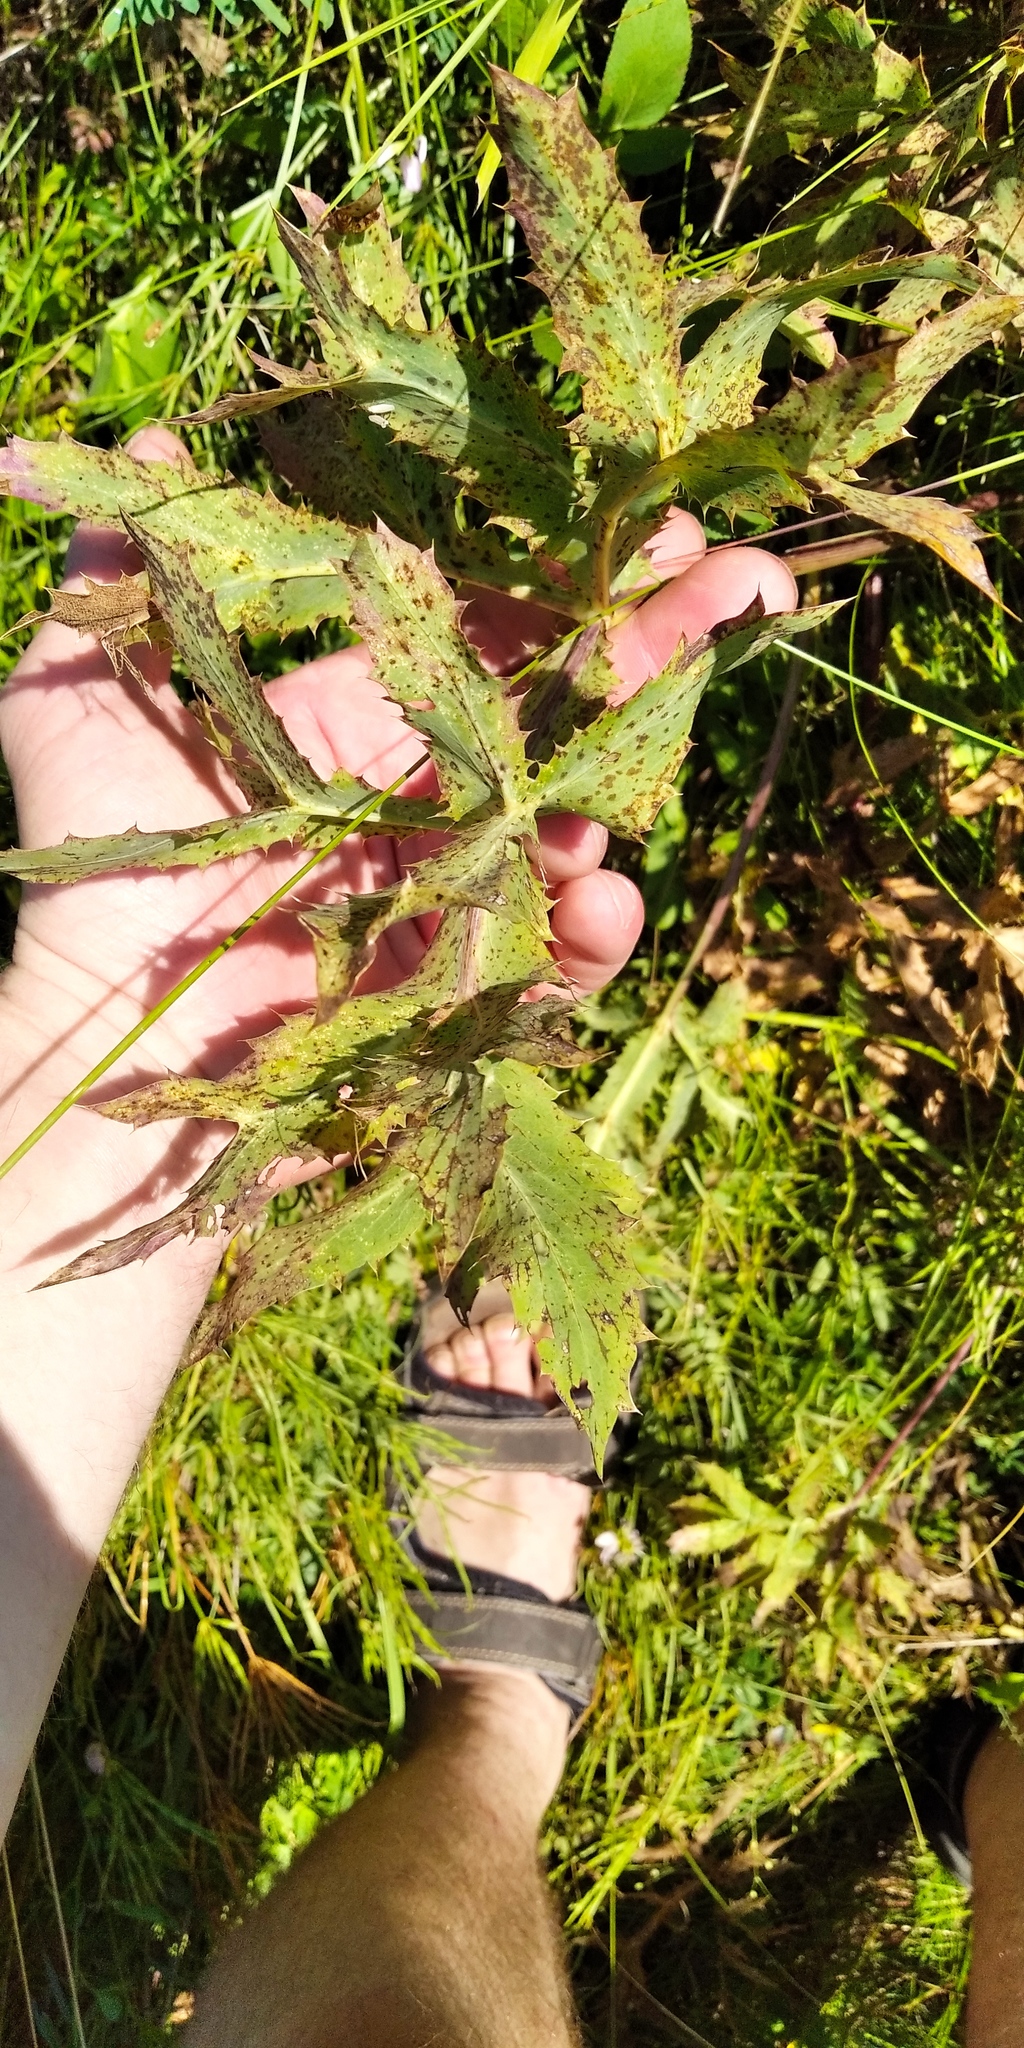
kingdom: Plantae
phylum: Tracheophyta
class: Magnoliopsida
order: Apiales
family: Apiaceae
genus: Eryngium
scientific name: Eryngium campestre
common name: Field eryngo
